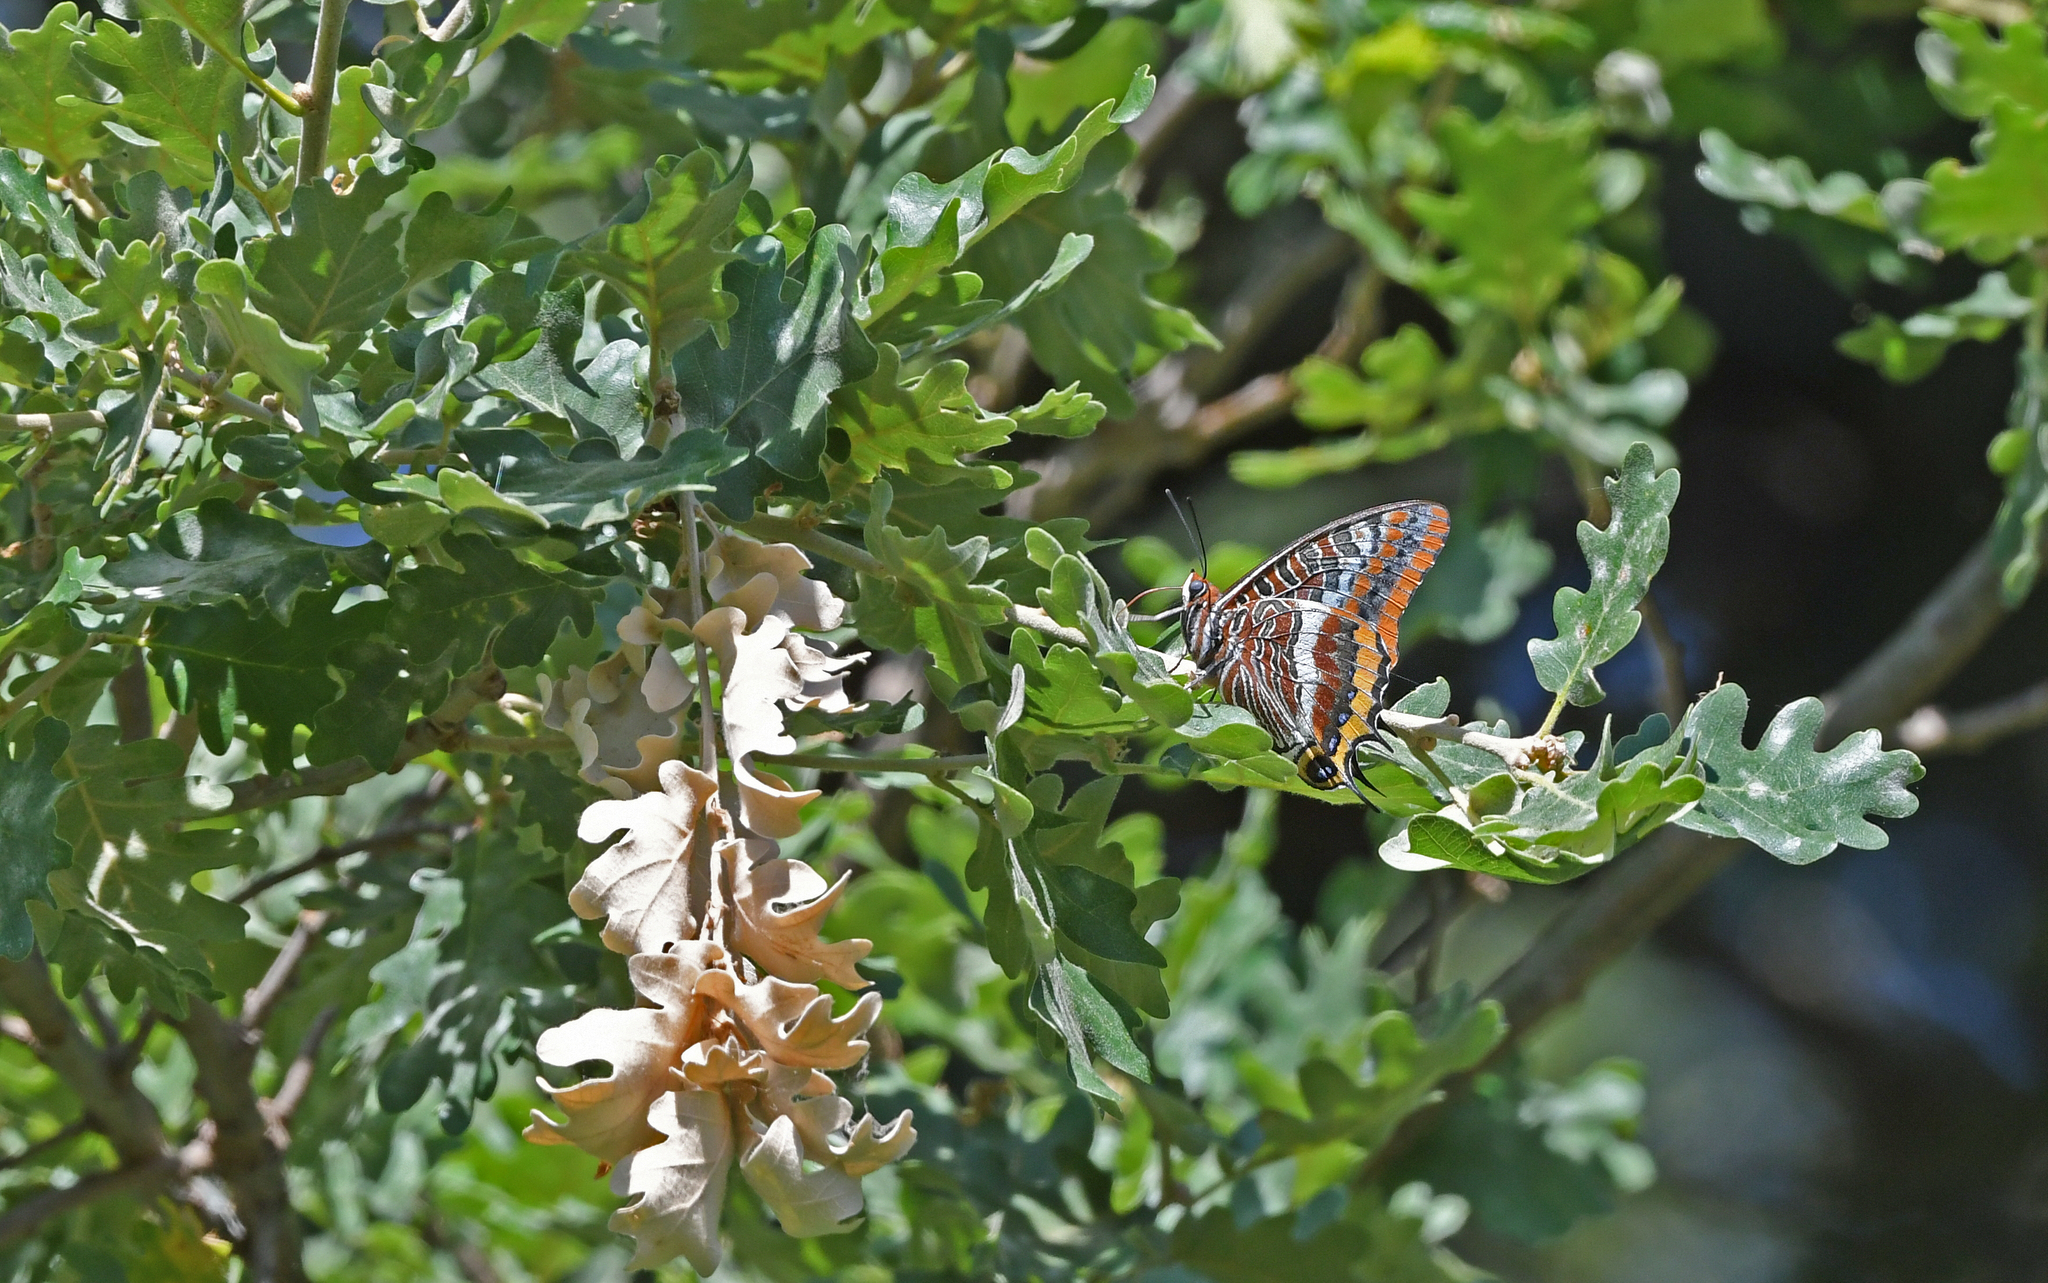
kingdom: Animalia
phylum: Arthropoda
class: Insecta
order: Lepidoptera
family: Nymphalidae
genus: Charaxes
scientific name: Charaxes jasius
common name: Two tailed pasha
